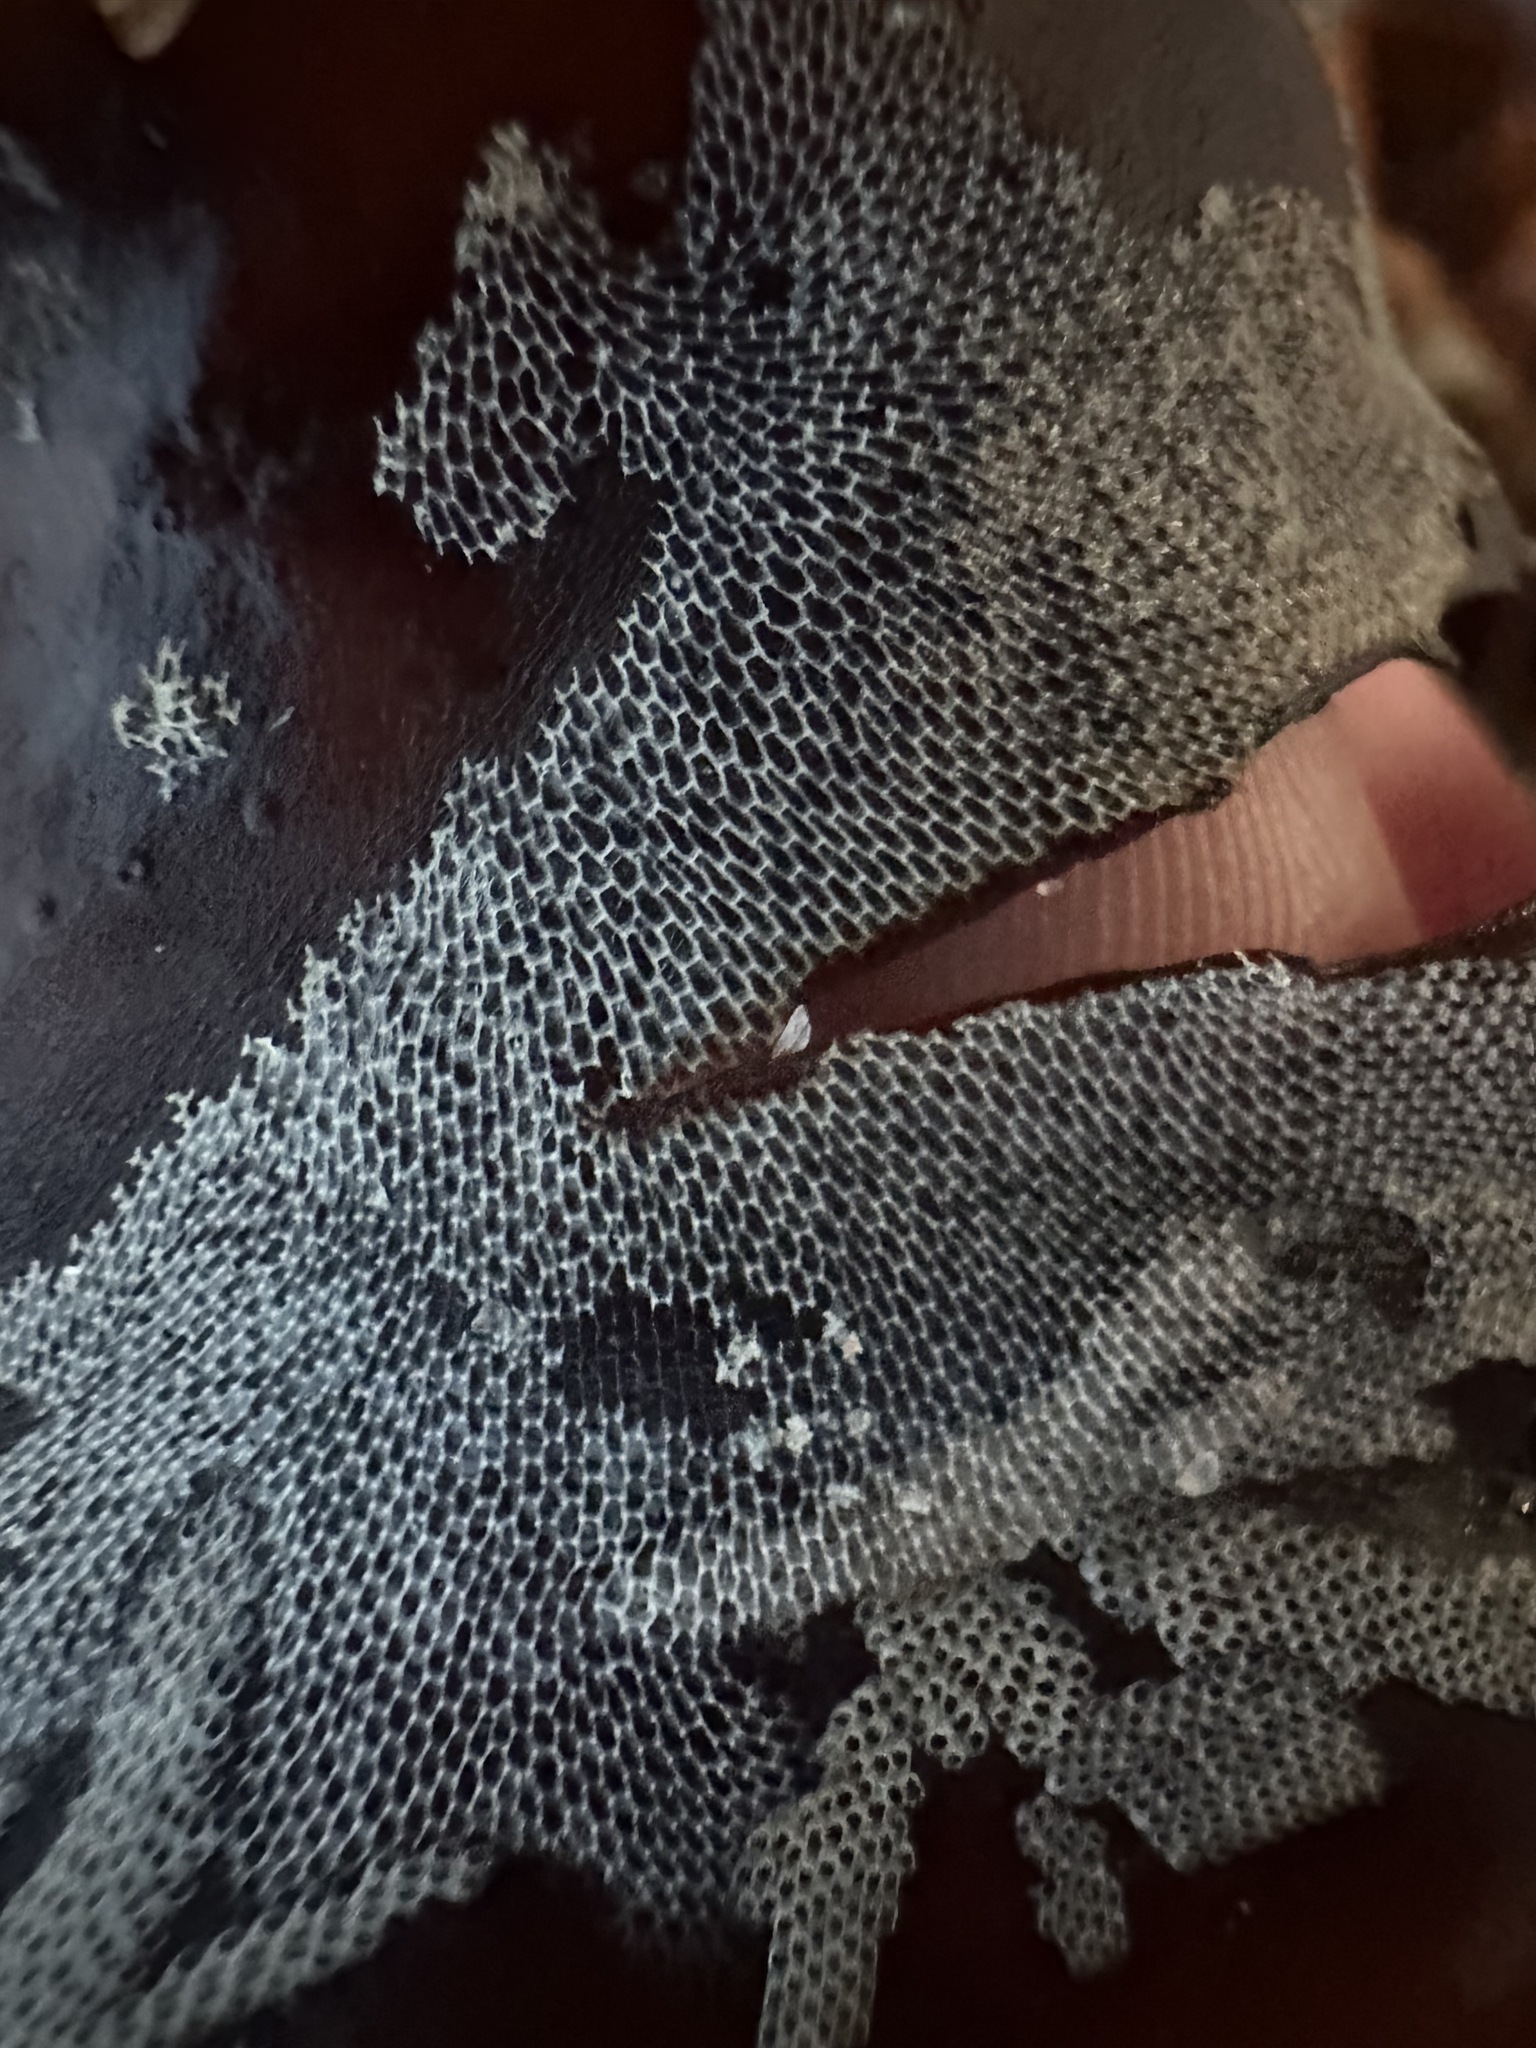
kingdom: Animalia
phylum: Bryozoa
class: Gymnolaemata
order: Cheilostomatida
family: Membraniporidae
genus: Membranipora
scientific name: Membranipora membranacea
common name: Sea mat
